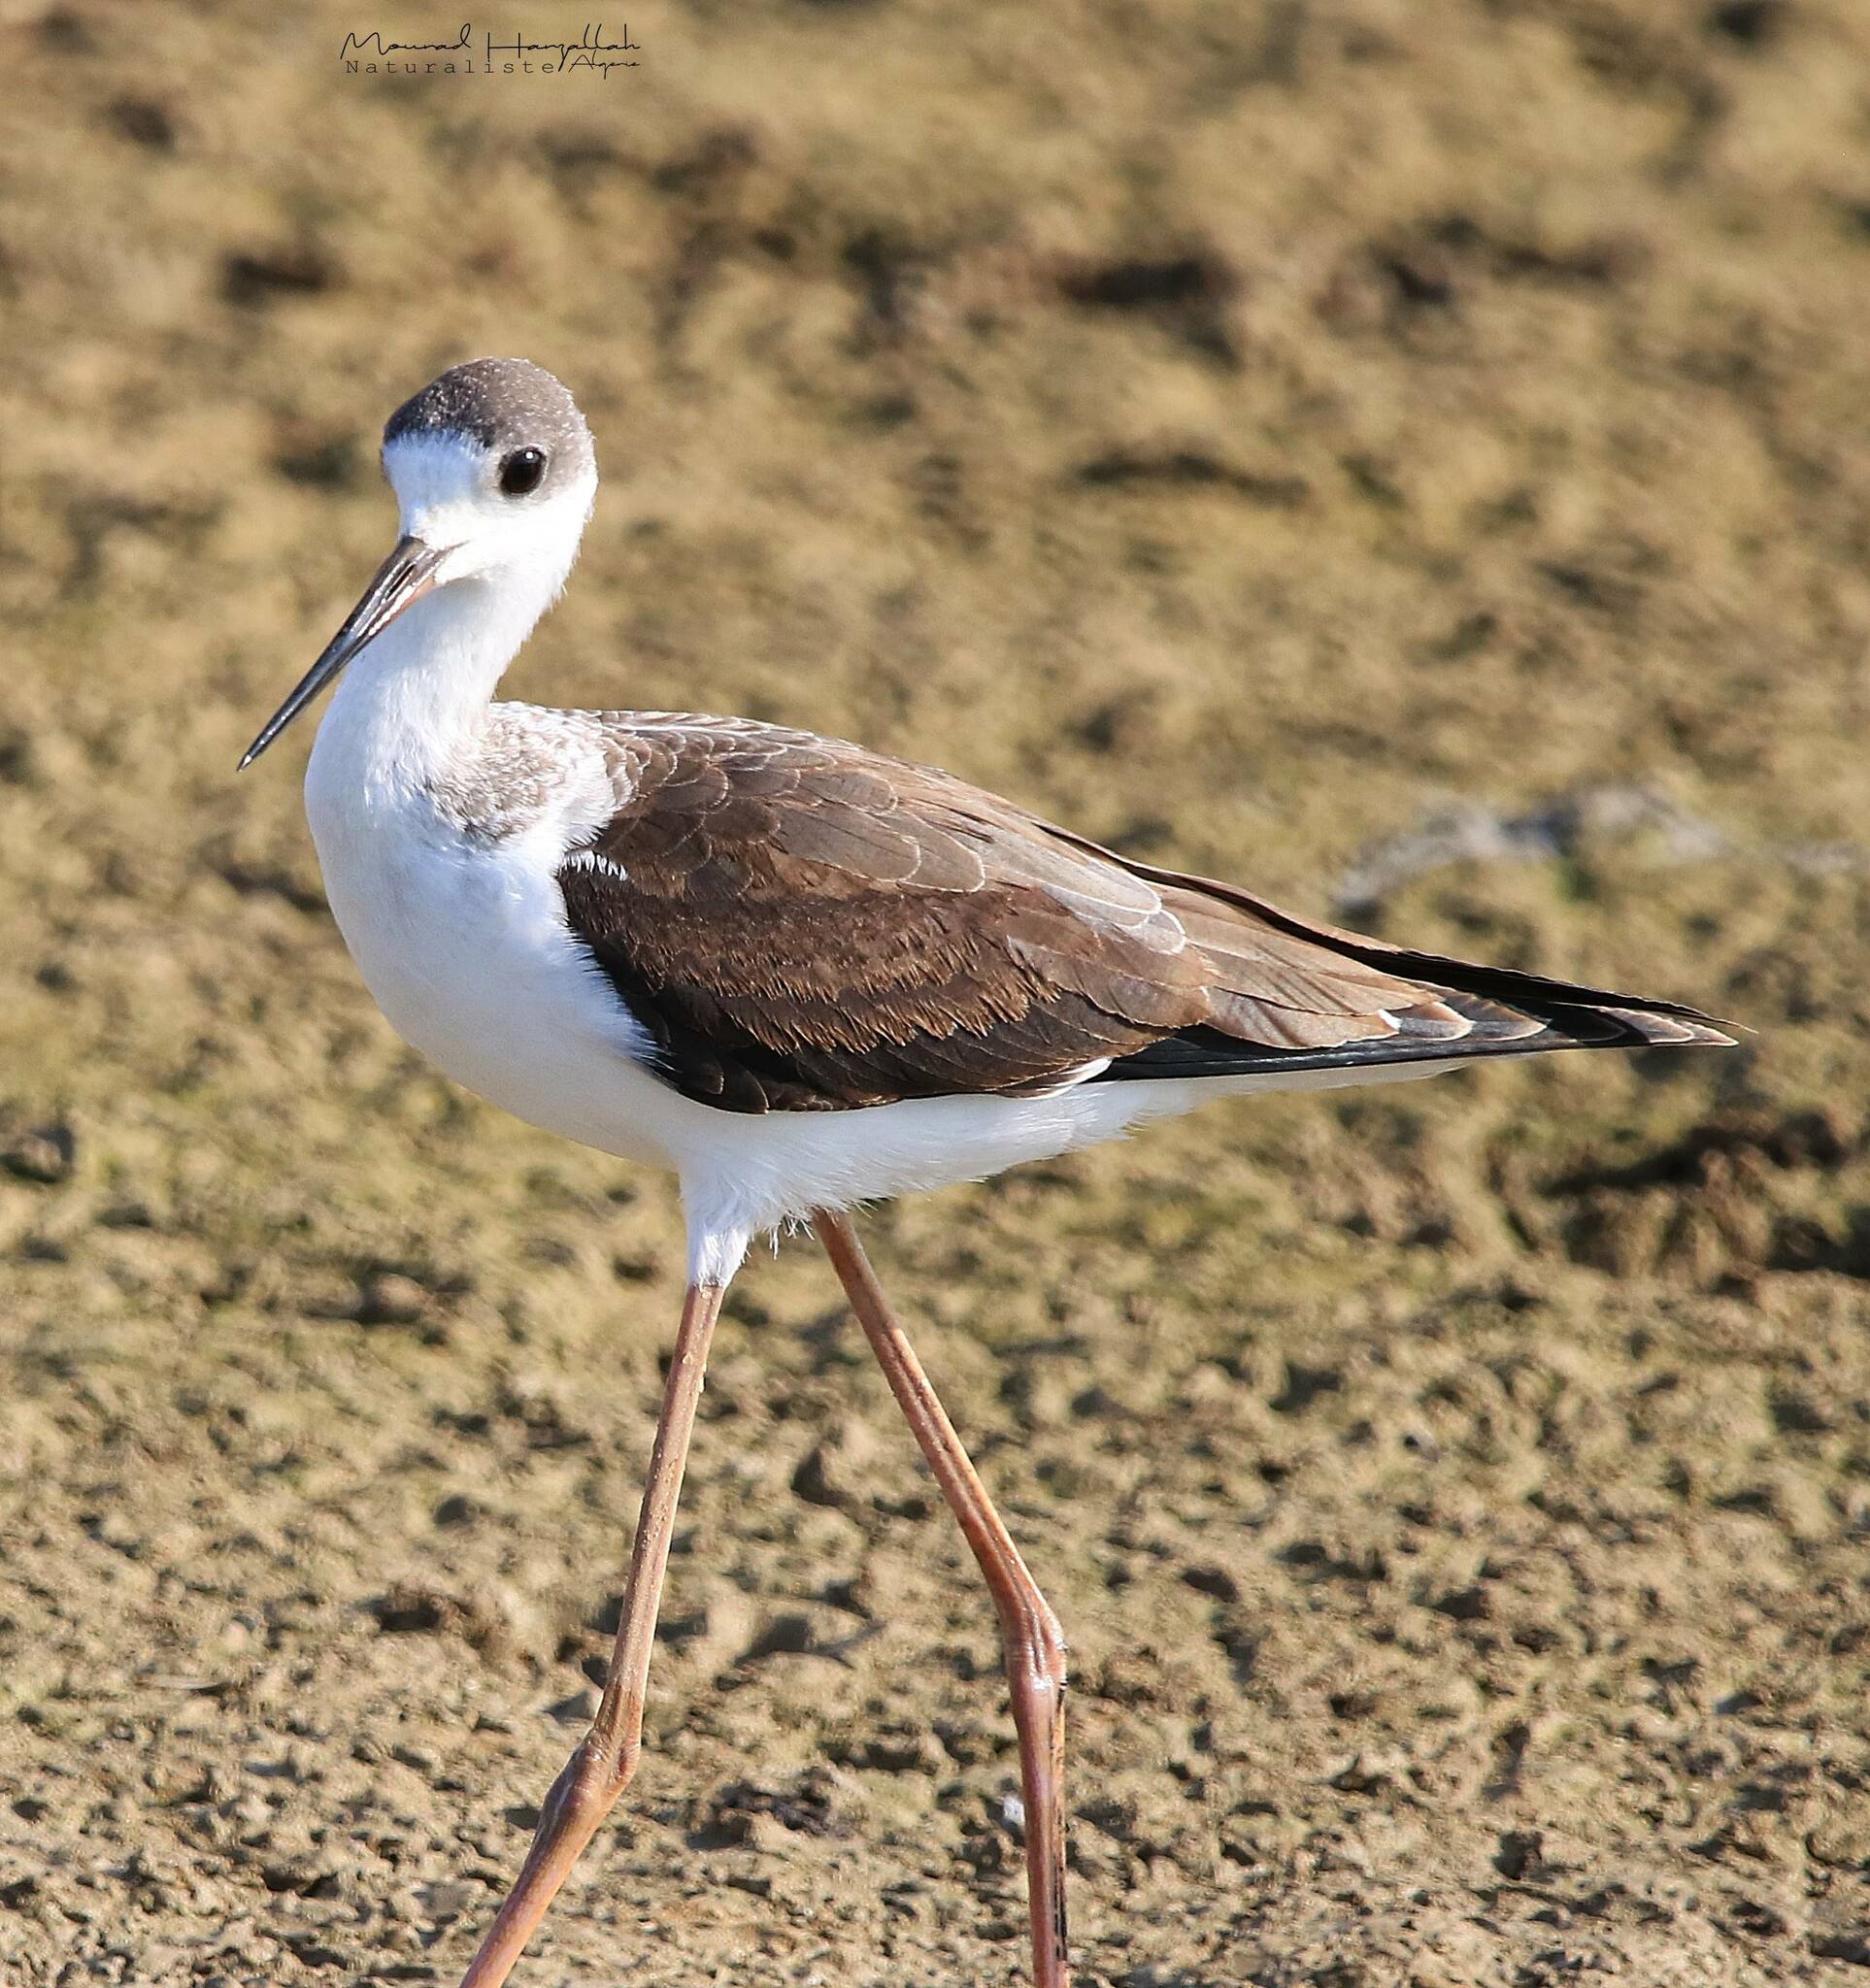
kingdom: Animalia
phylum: Chordata
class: Aves
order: Charadriiformes
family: Recurvirostridae
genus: Himantopus
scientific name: Himantopus himantopus
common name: Black-winged stilt
